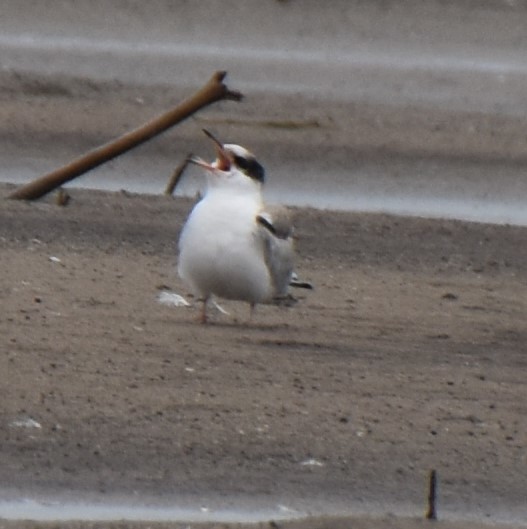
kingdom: Animalia
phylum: Chordata
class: Aves
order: Charadriiformes
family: Laridae
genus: Sterna
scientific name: Sterna hirundo
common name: Common tern
